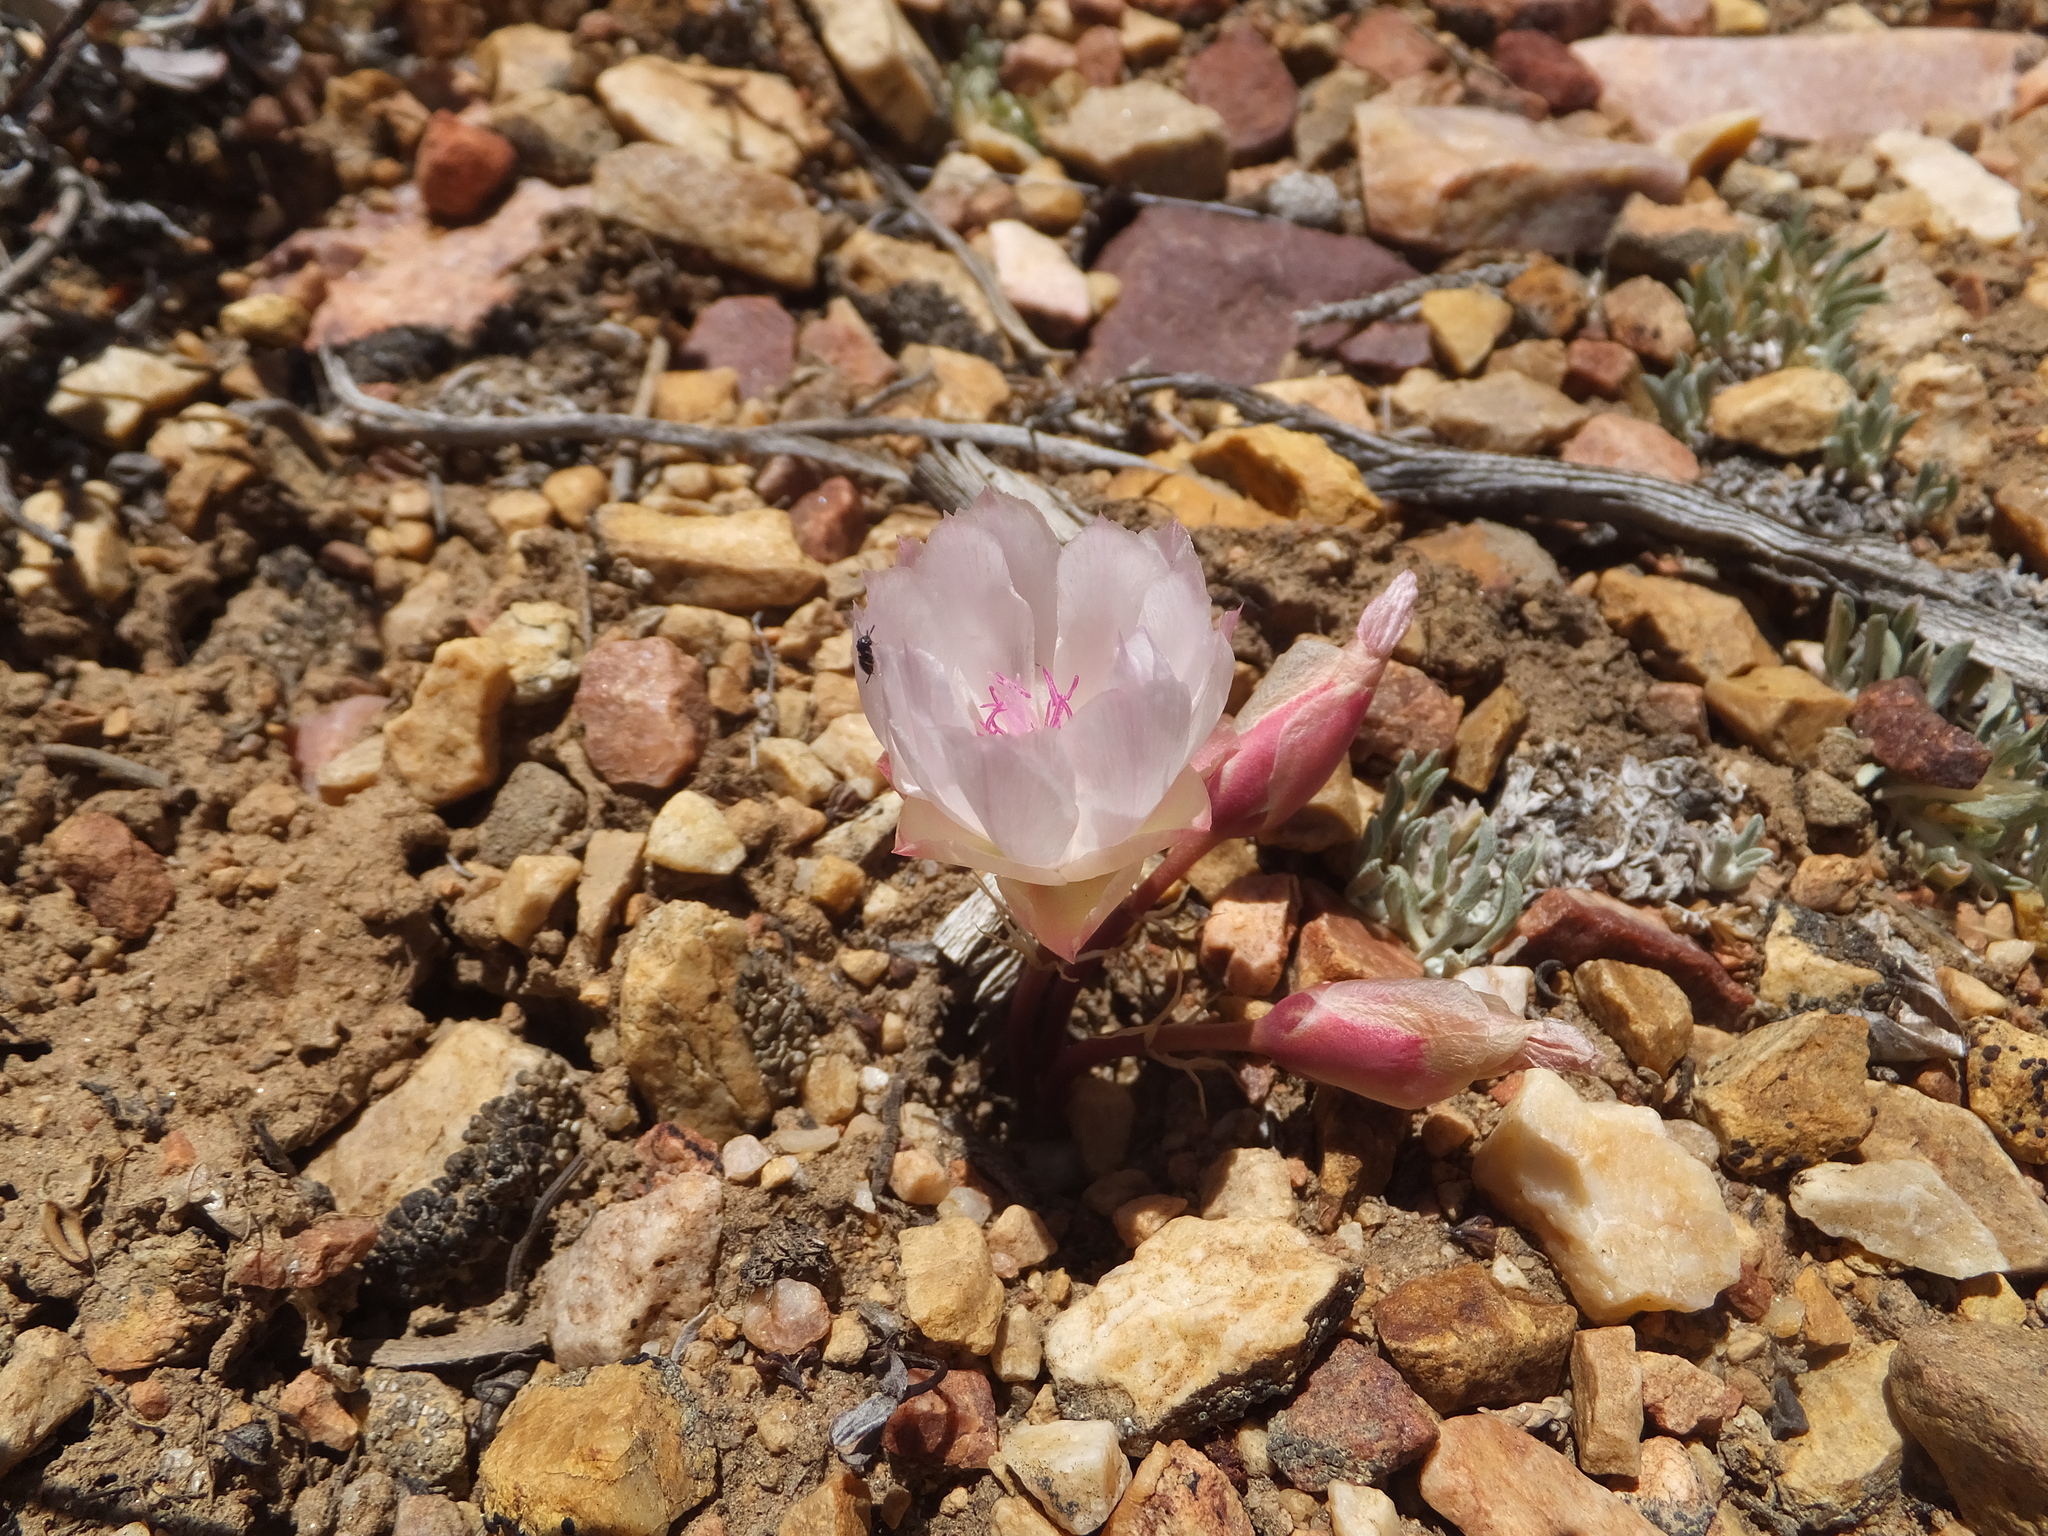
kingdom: Plantae
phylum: Tracheophyta
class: Magnoliopsida
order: Caryophyllales
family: Montiaceae
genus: Lewisia
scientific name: Lewisia rediviva
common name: Bitter-root
